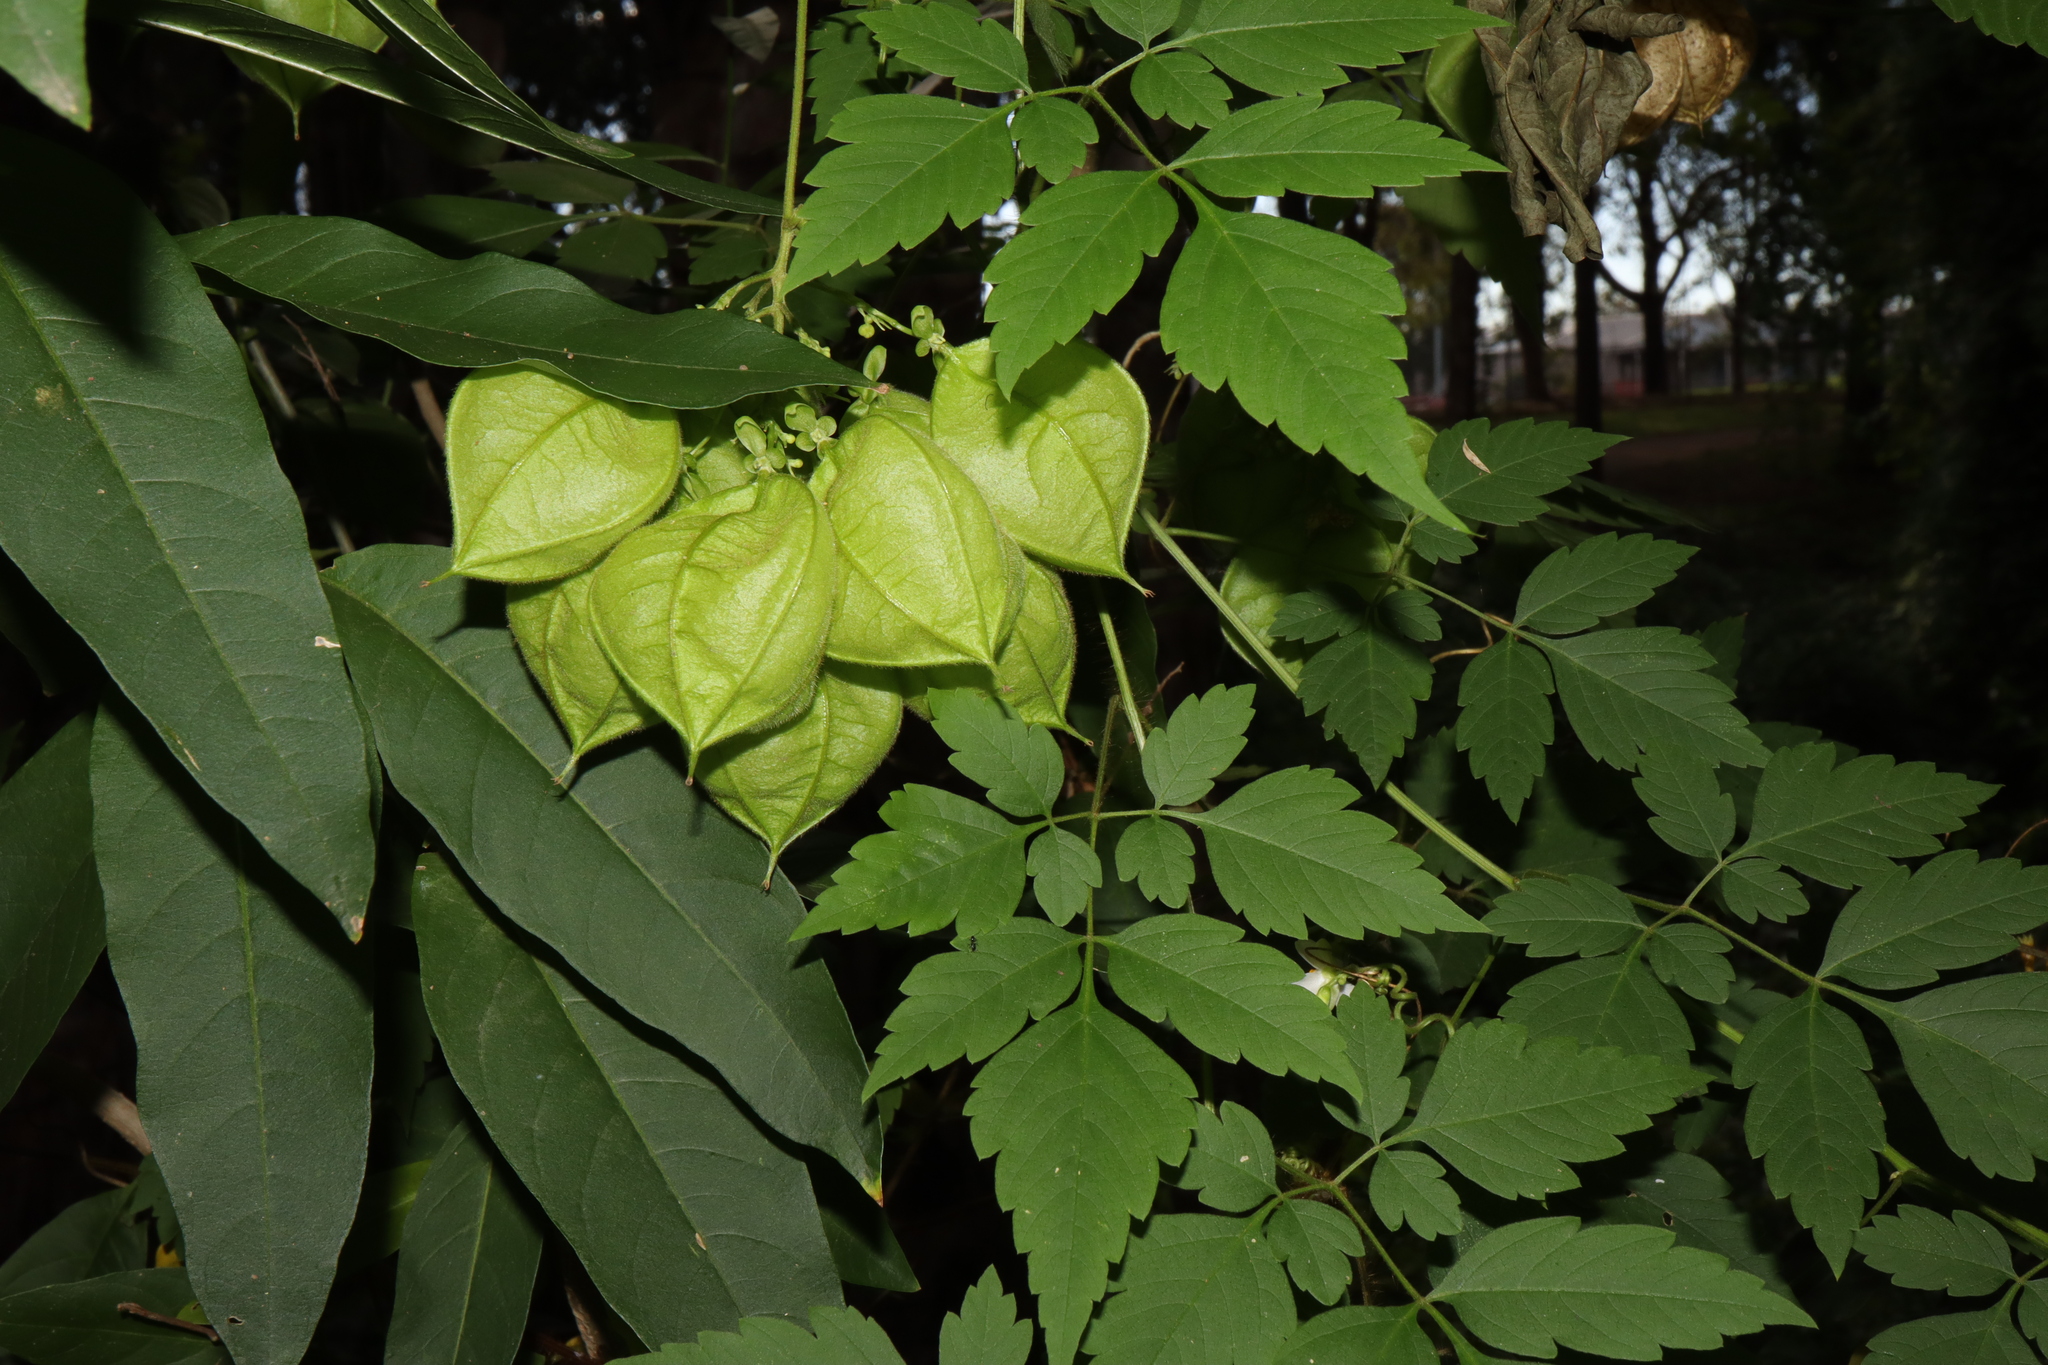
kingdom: Plantae
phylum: Tracheophyta
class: Magnoliopsida
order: Sapindales
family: Sapindaceae
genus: Cardiospermum
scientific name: Cardiospermum grandiflorum
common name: Balloon vine
